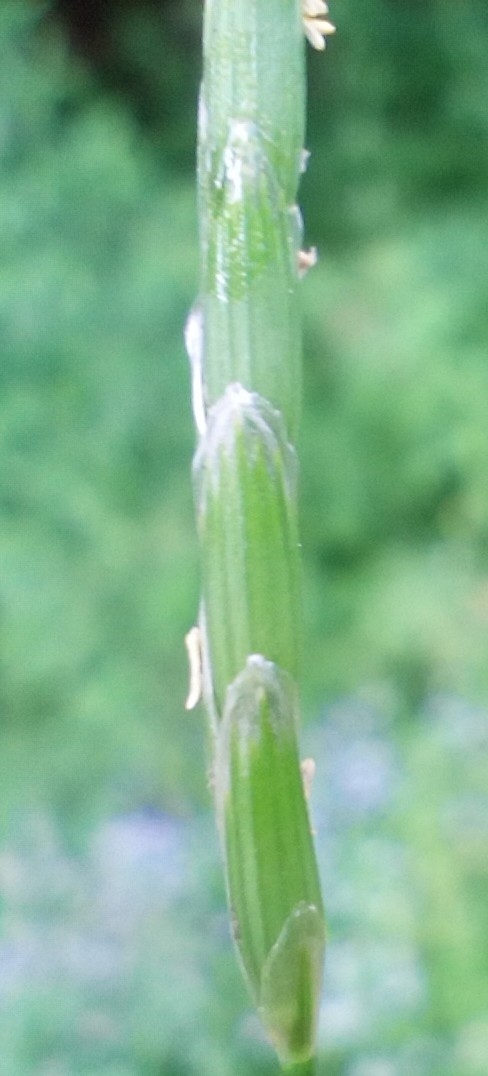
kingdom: Plantae
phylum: Tracheophyta
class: Liliopsida
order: Poales
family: Poaceae
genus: Glyceria
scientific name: Glyceria notata
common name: Plicate sweet-grass
